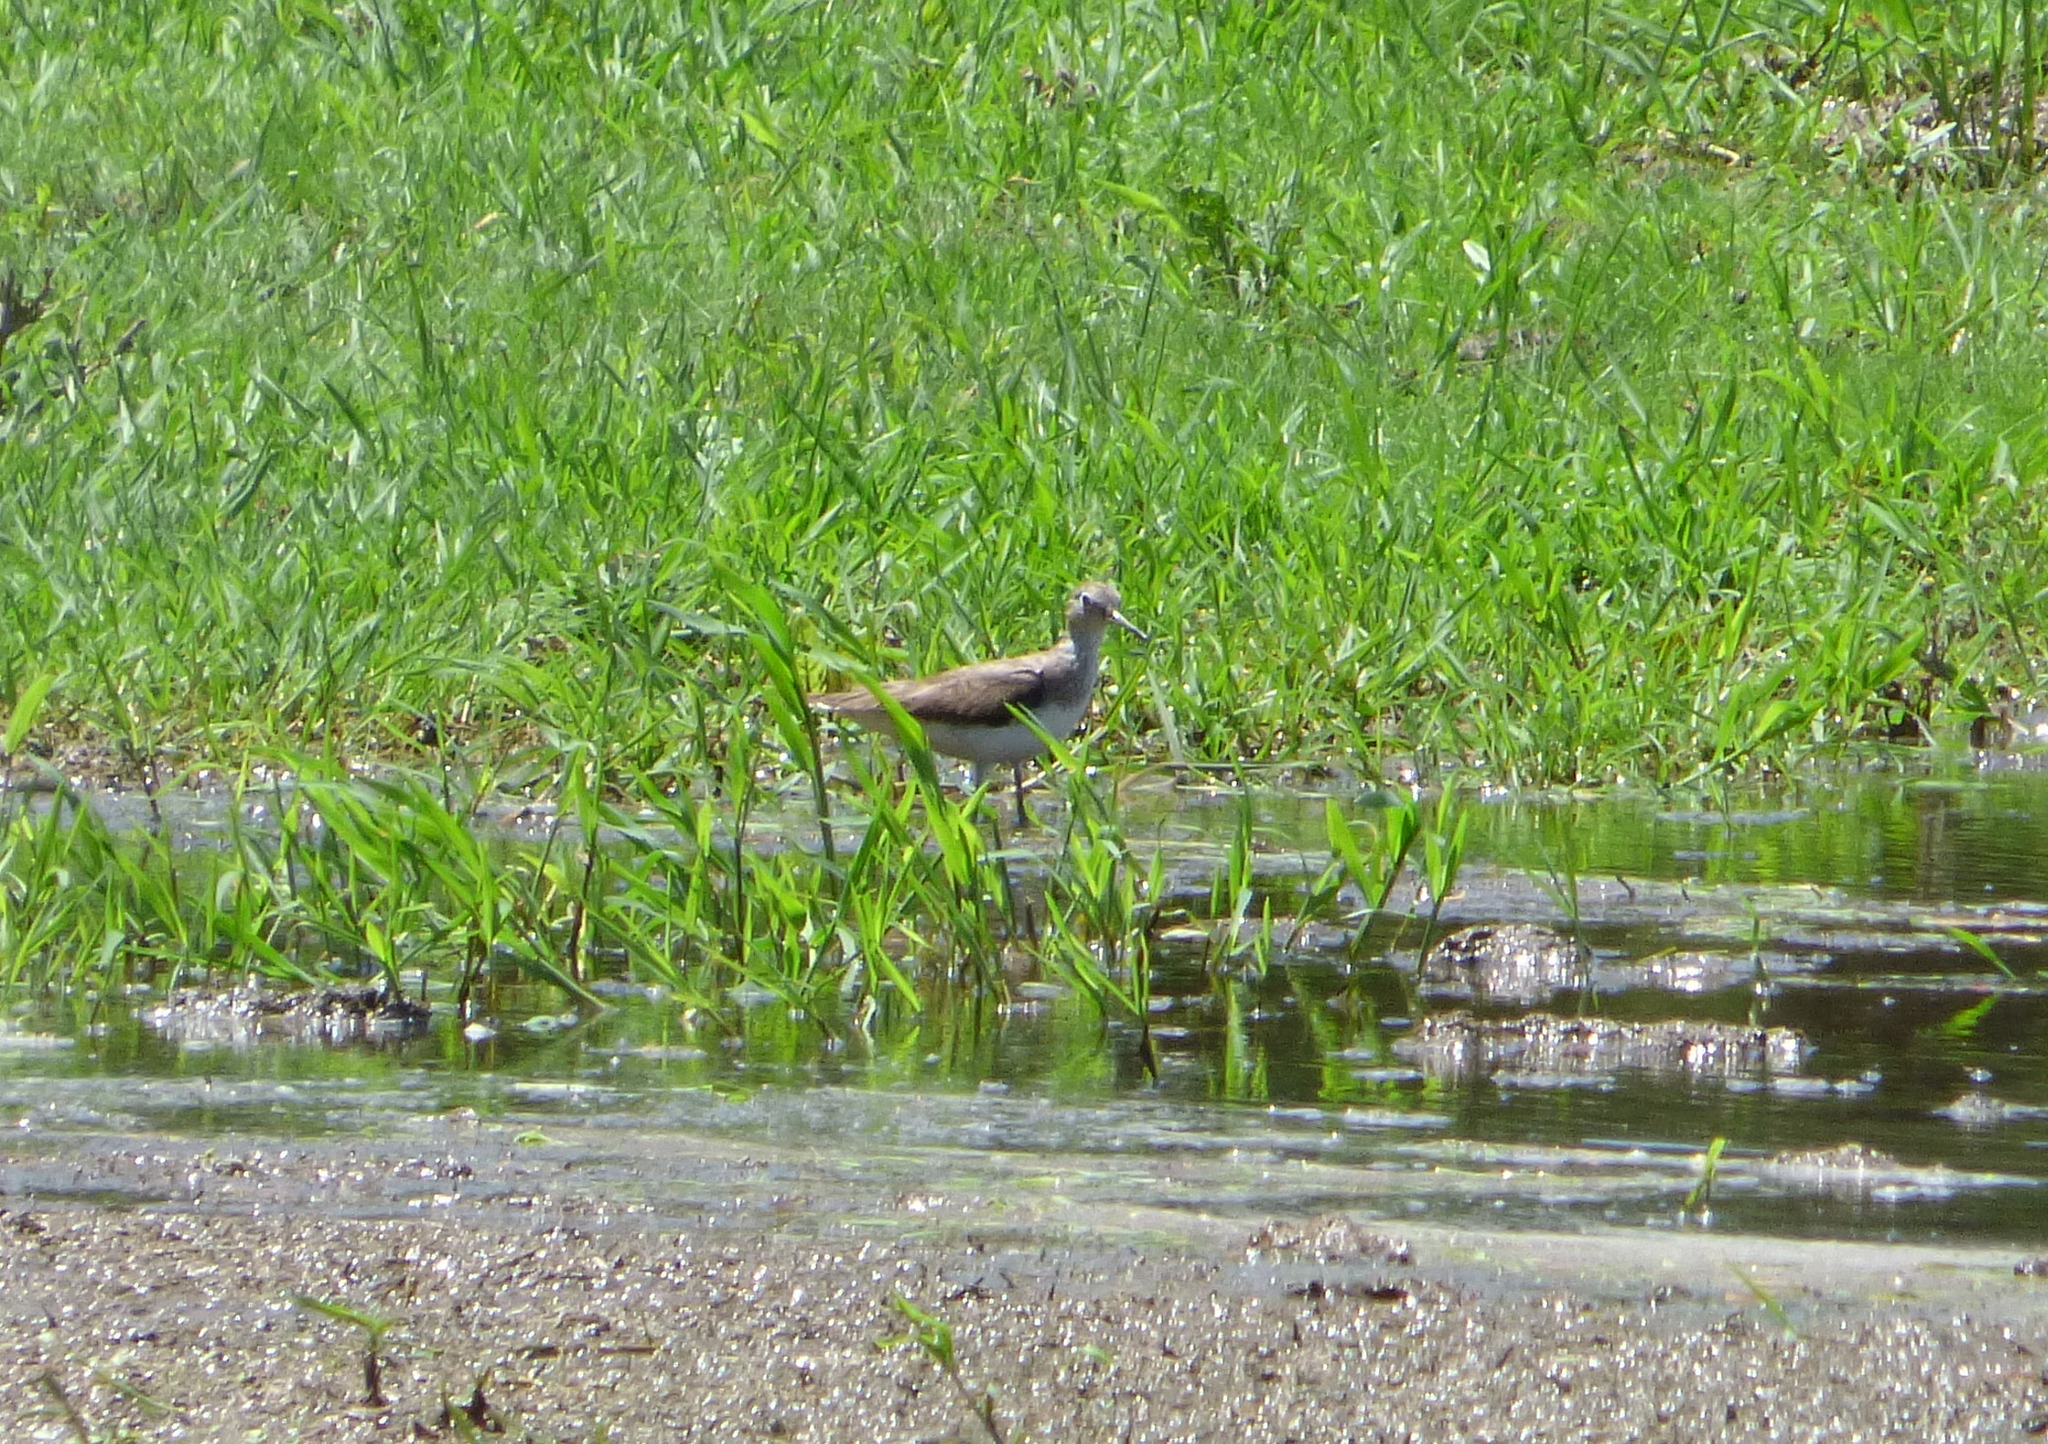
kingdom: Animalia
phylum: Chordata
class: Aves
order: Charadriiformes
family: Scolopacidae
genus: Tringa
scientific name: Tringa solitaria
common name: Solitary sandpiper
